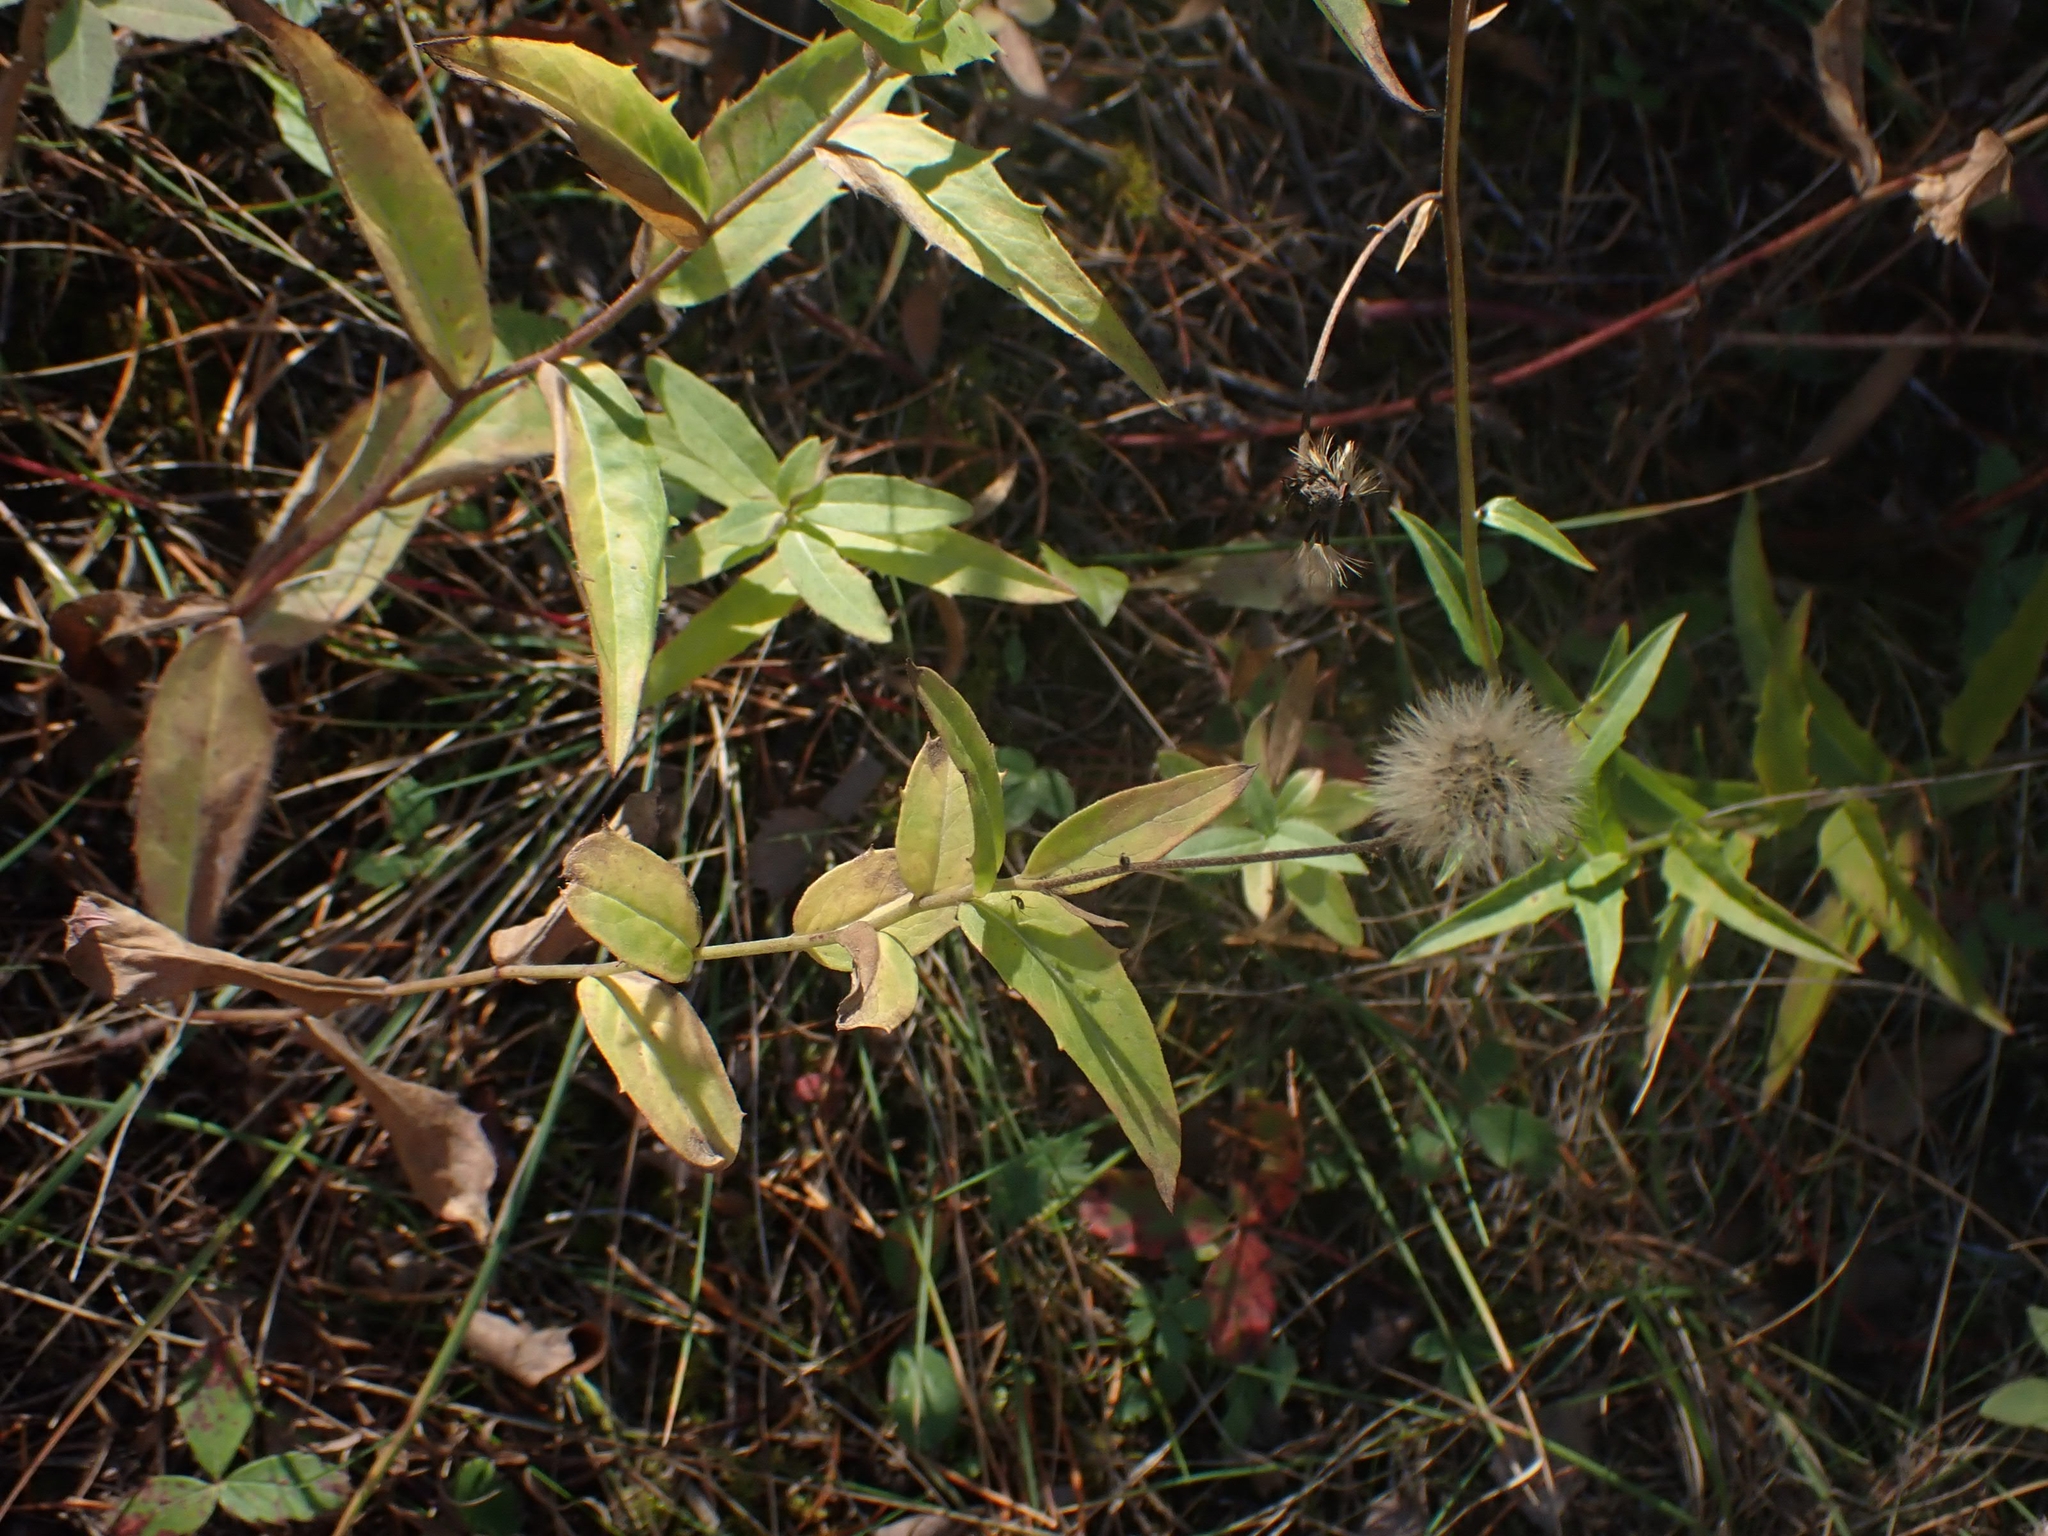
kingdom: Plantae
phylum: Tracheophyta
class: Magnoliopsida
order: Asterales
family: Asteraceae
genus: Hieracium
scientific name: Hieracium umbellatum
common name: Northern hawkweed
